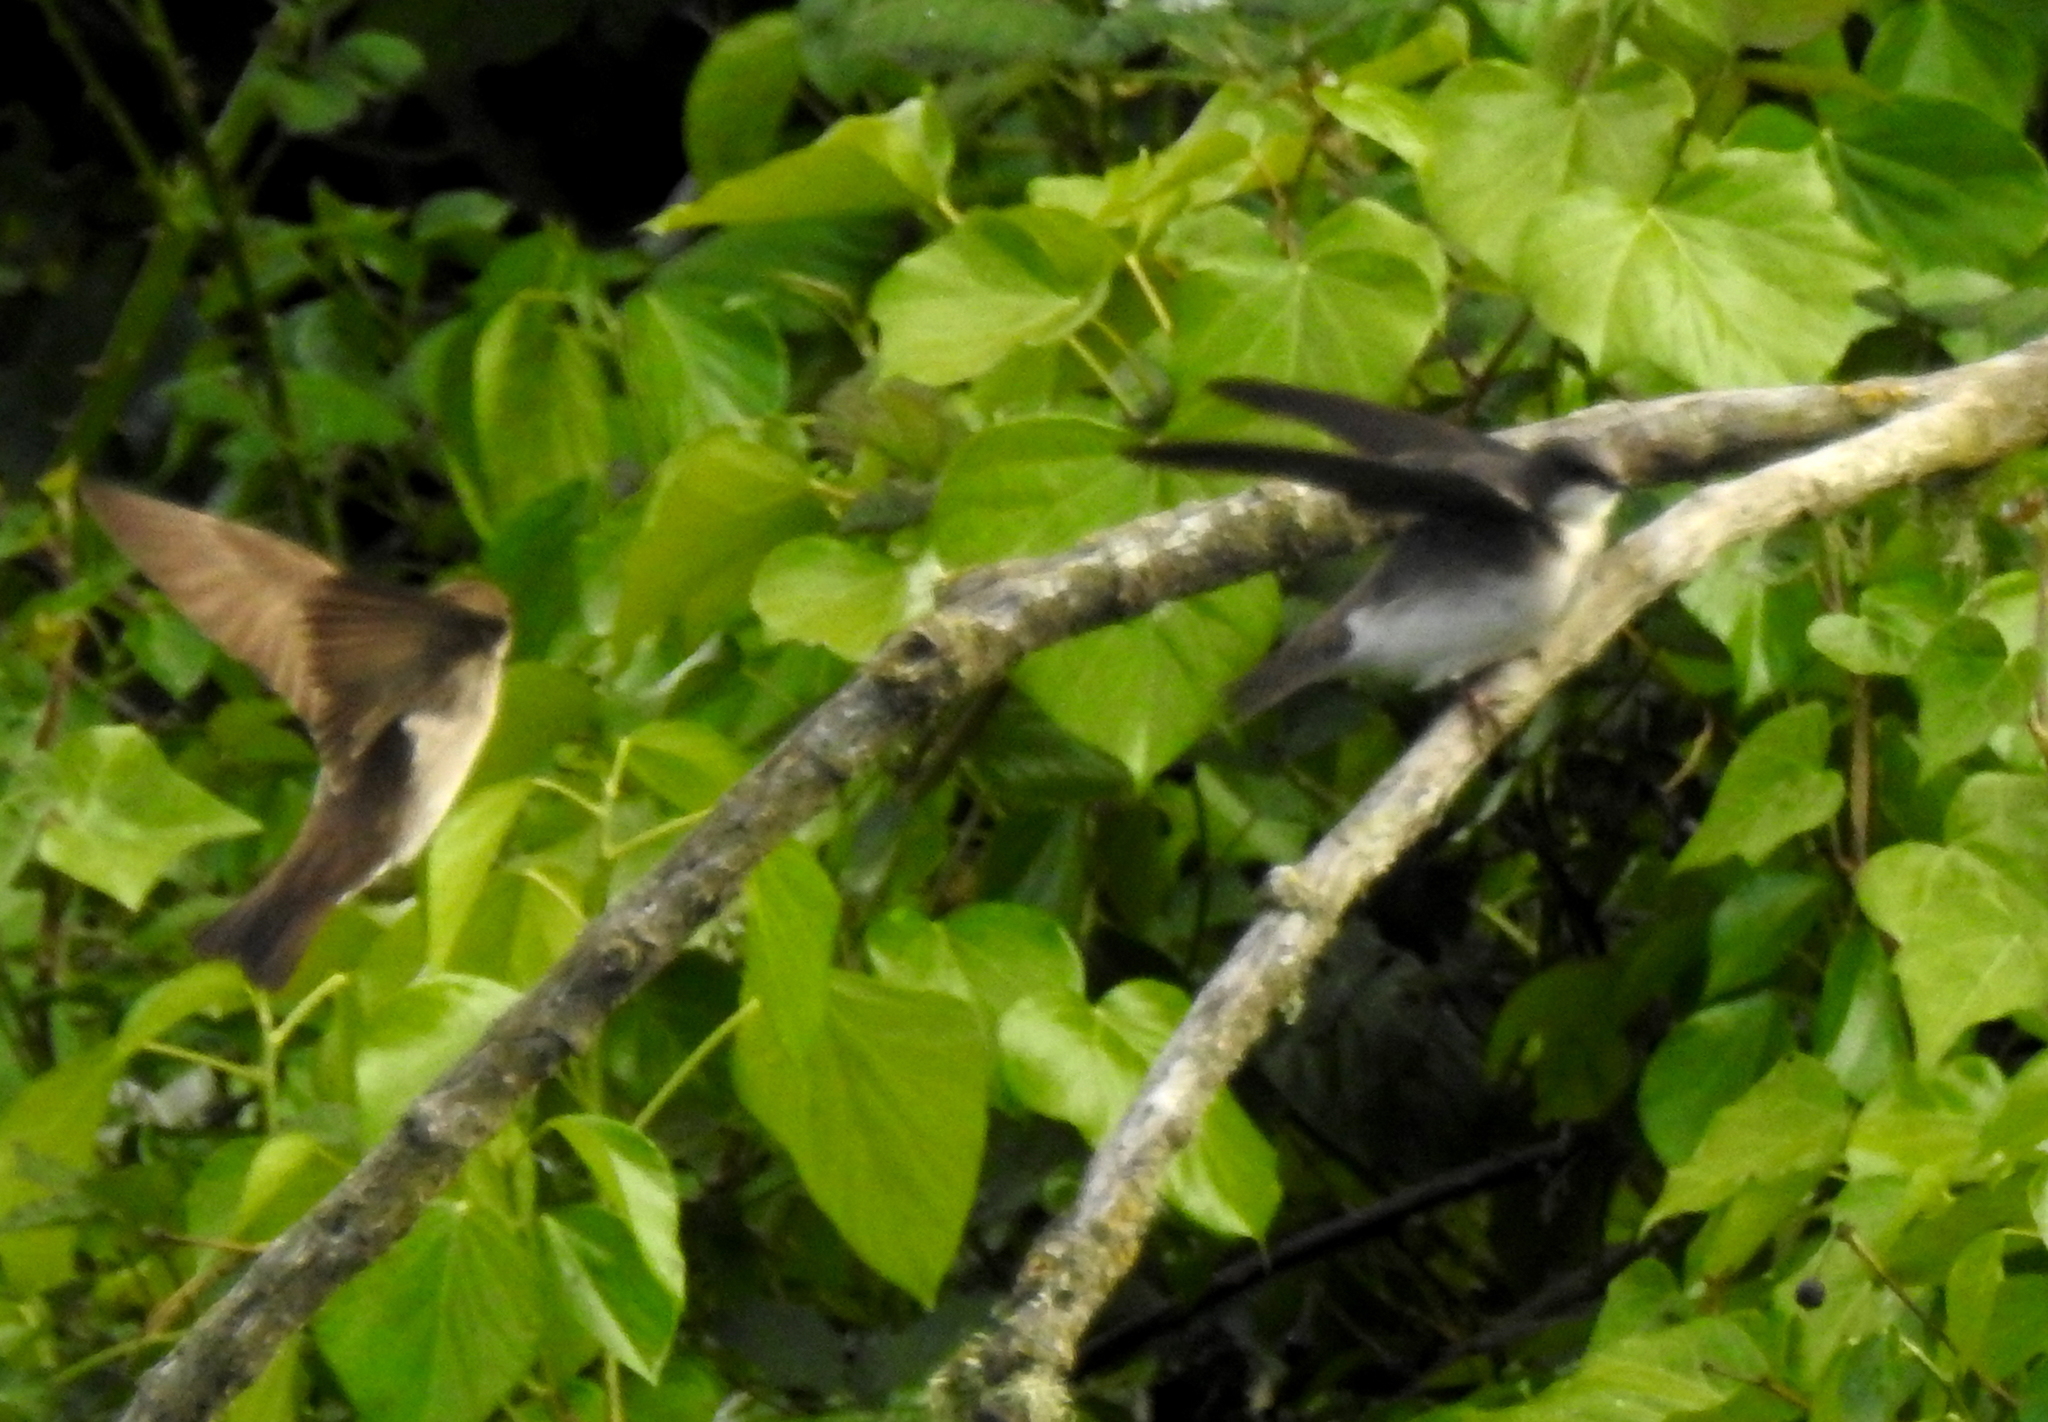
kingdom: Animalia
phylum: Chordata
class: Aves
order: Passeriformes
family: Hirundinidae
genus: Tachycineta
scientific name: Tachycineta bicolor
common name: Tree swallow
